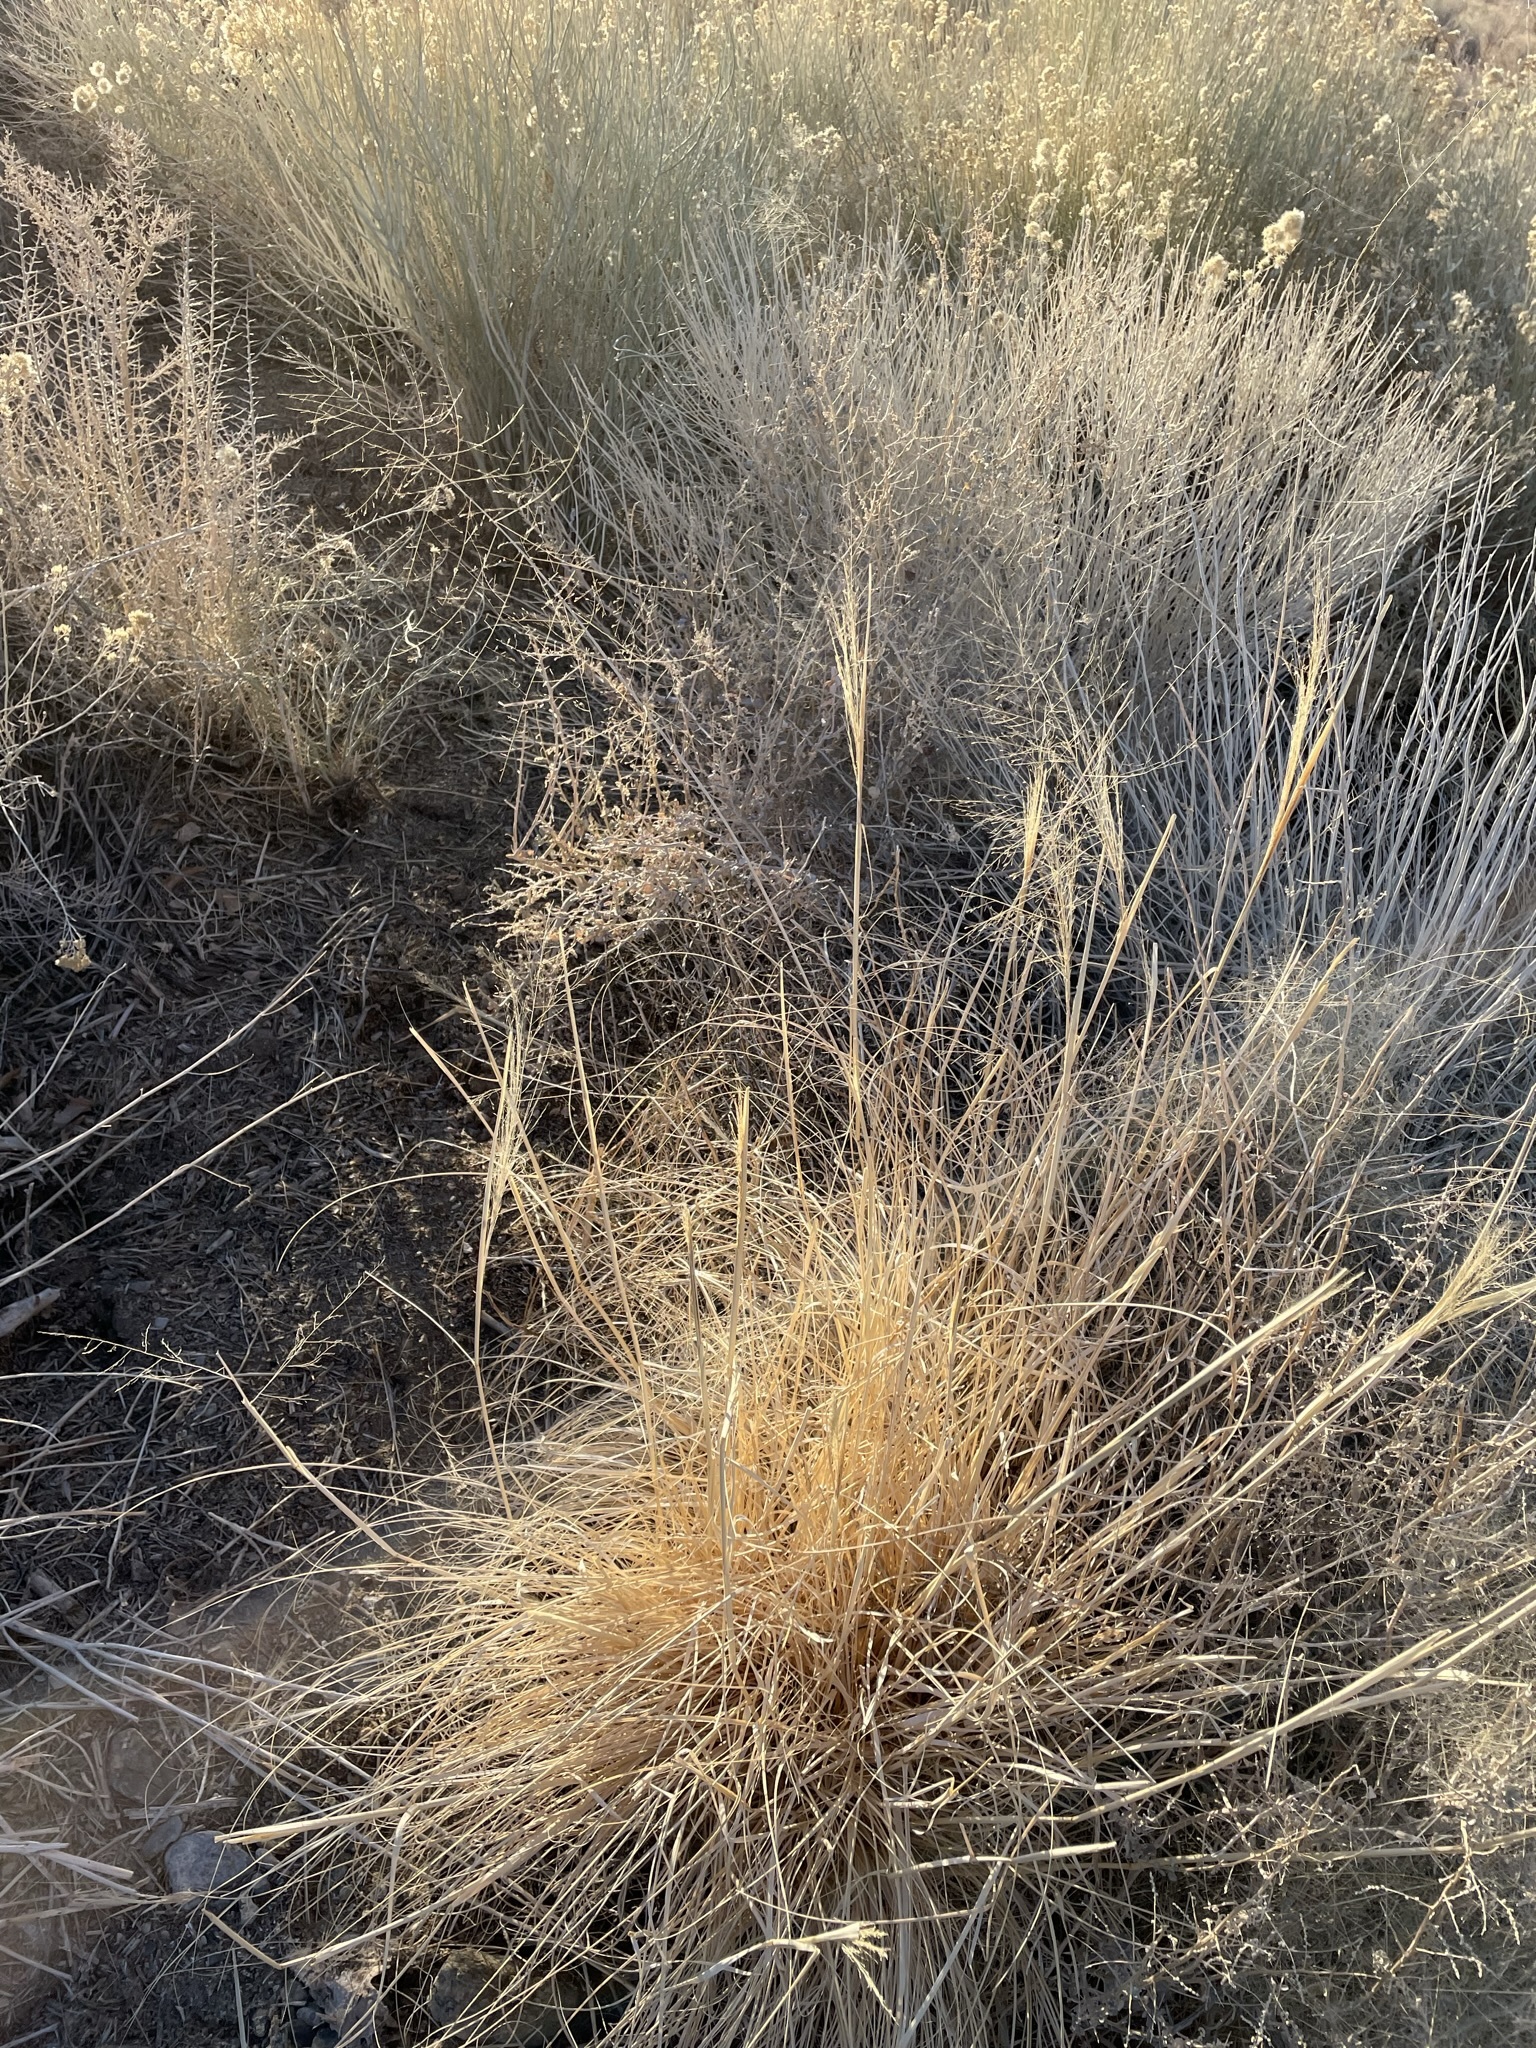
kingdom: Plantae
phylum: Tracheophyta
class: Liliopsida
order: Poales
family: Poaceae
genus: Sporobolus
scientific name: Sporobolus airoides
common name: Alkali sacaton
